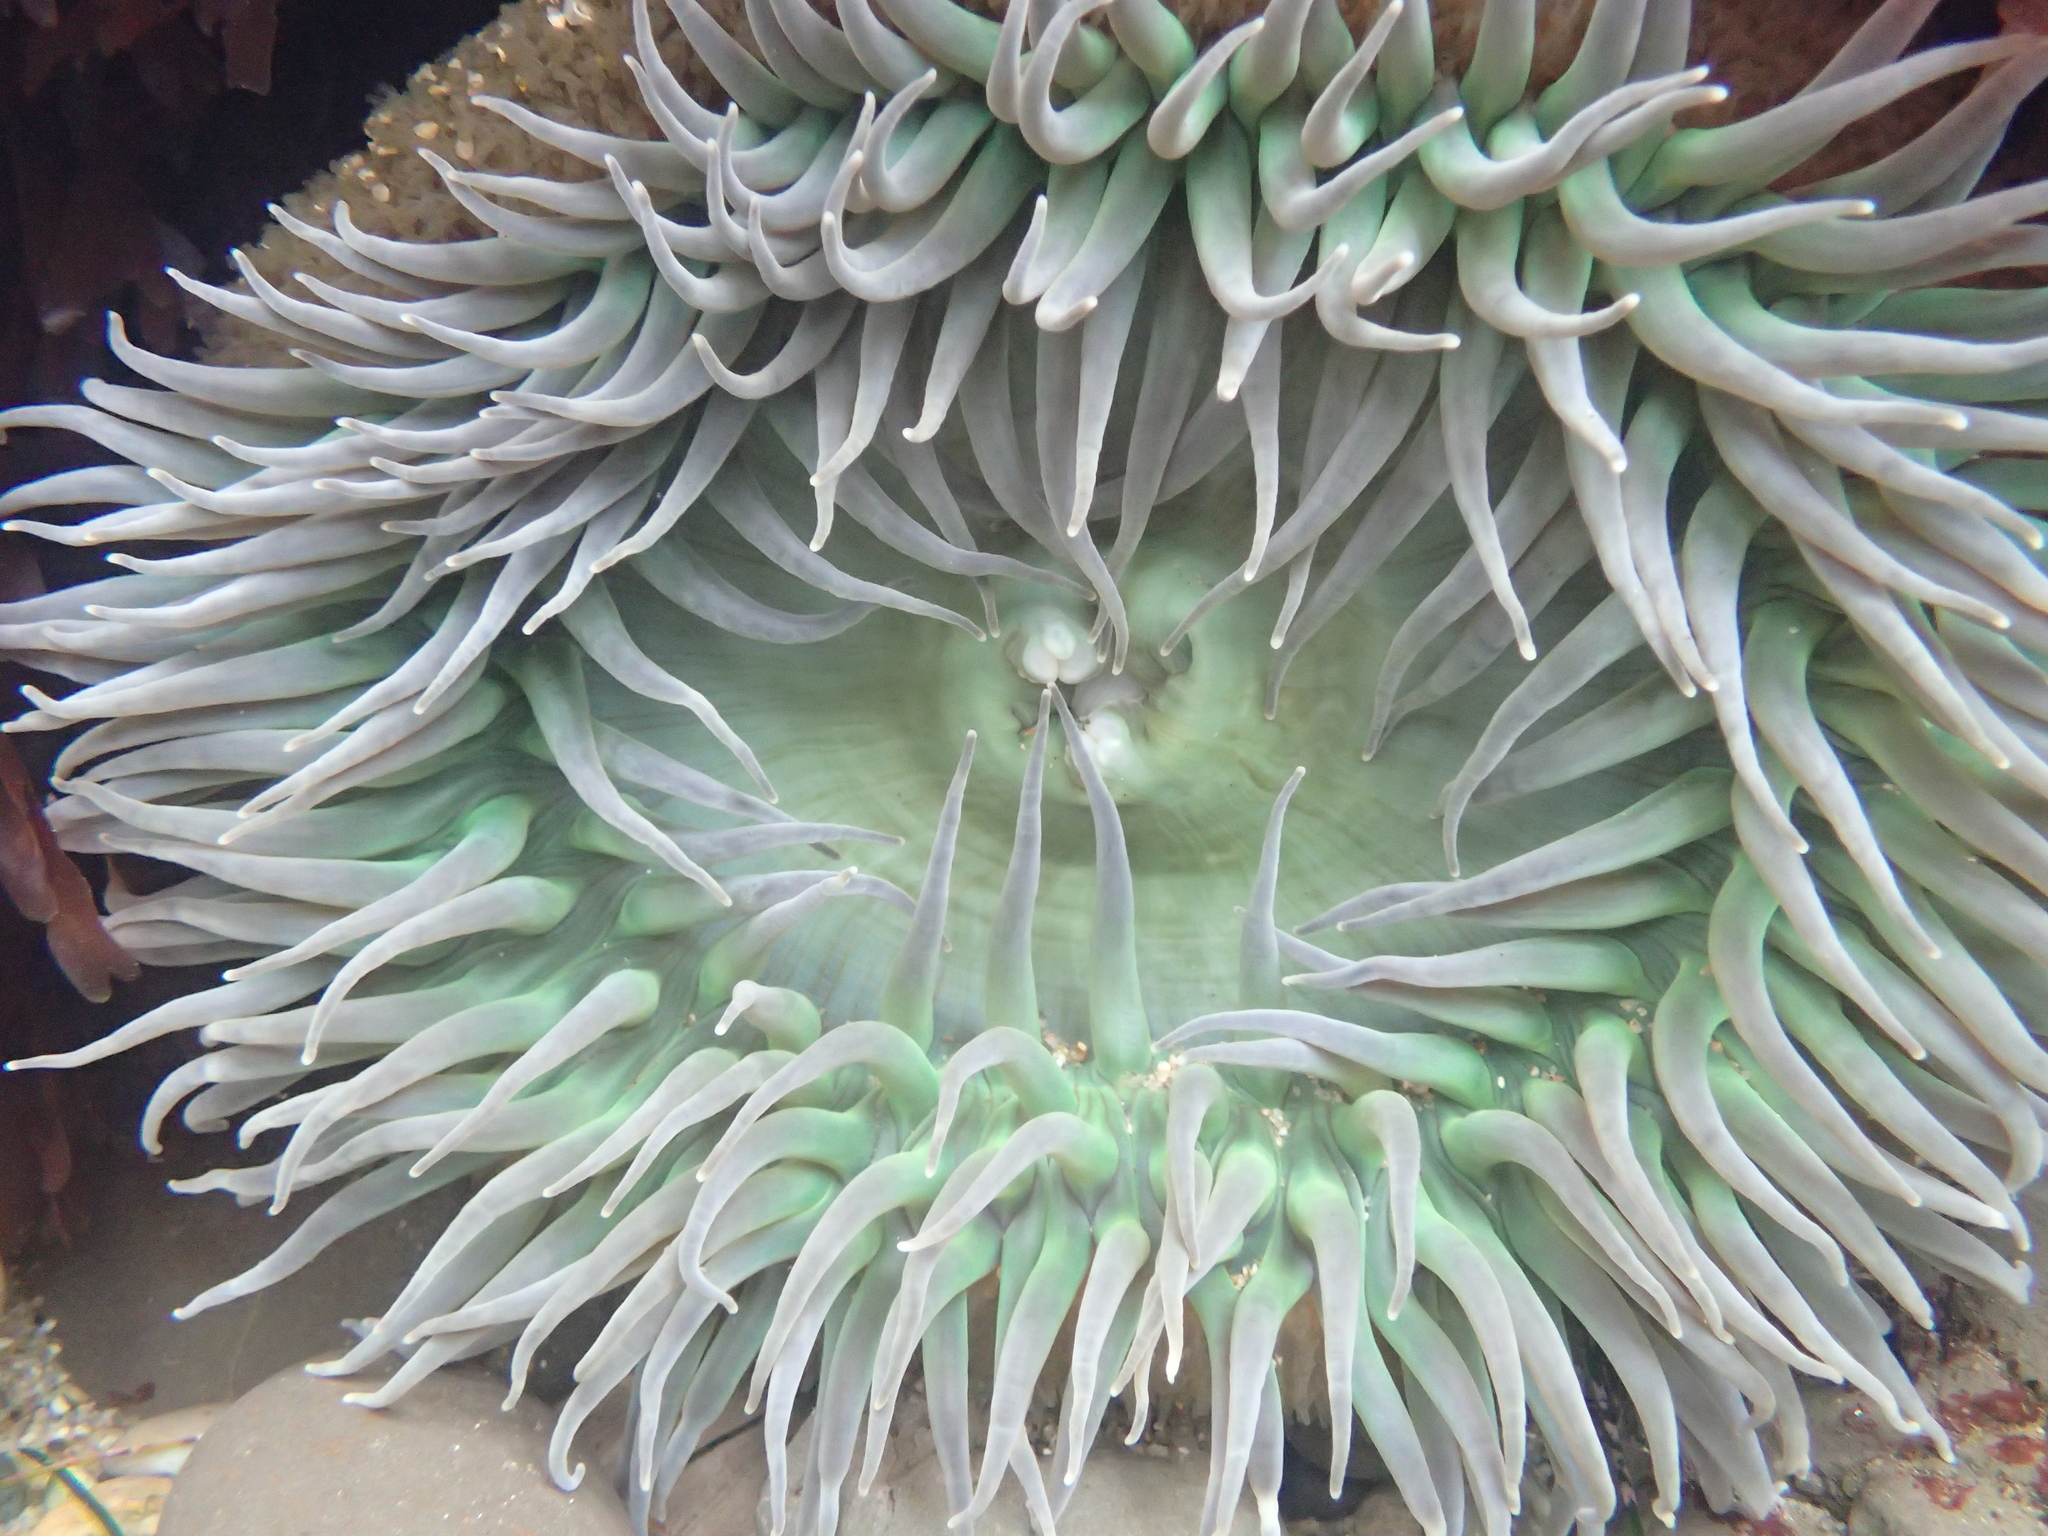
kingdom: Animalia
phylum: Cnidaria
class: Anthozoa
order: Actiniaria
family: Actiniidae
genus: Anthopleura
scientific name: Anthopleura xanthogrammica
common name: Giant green anemone
